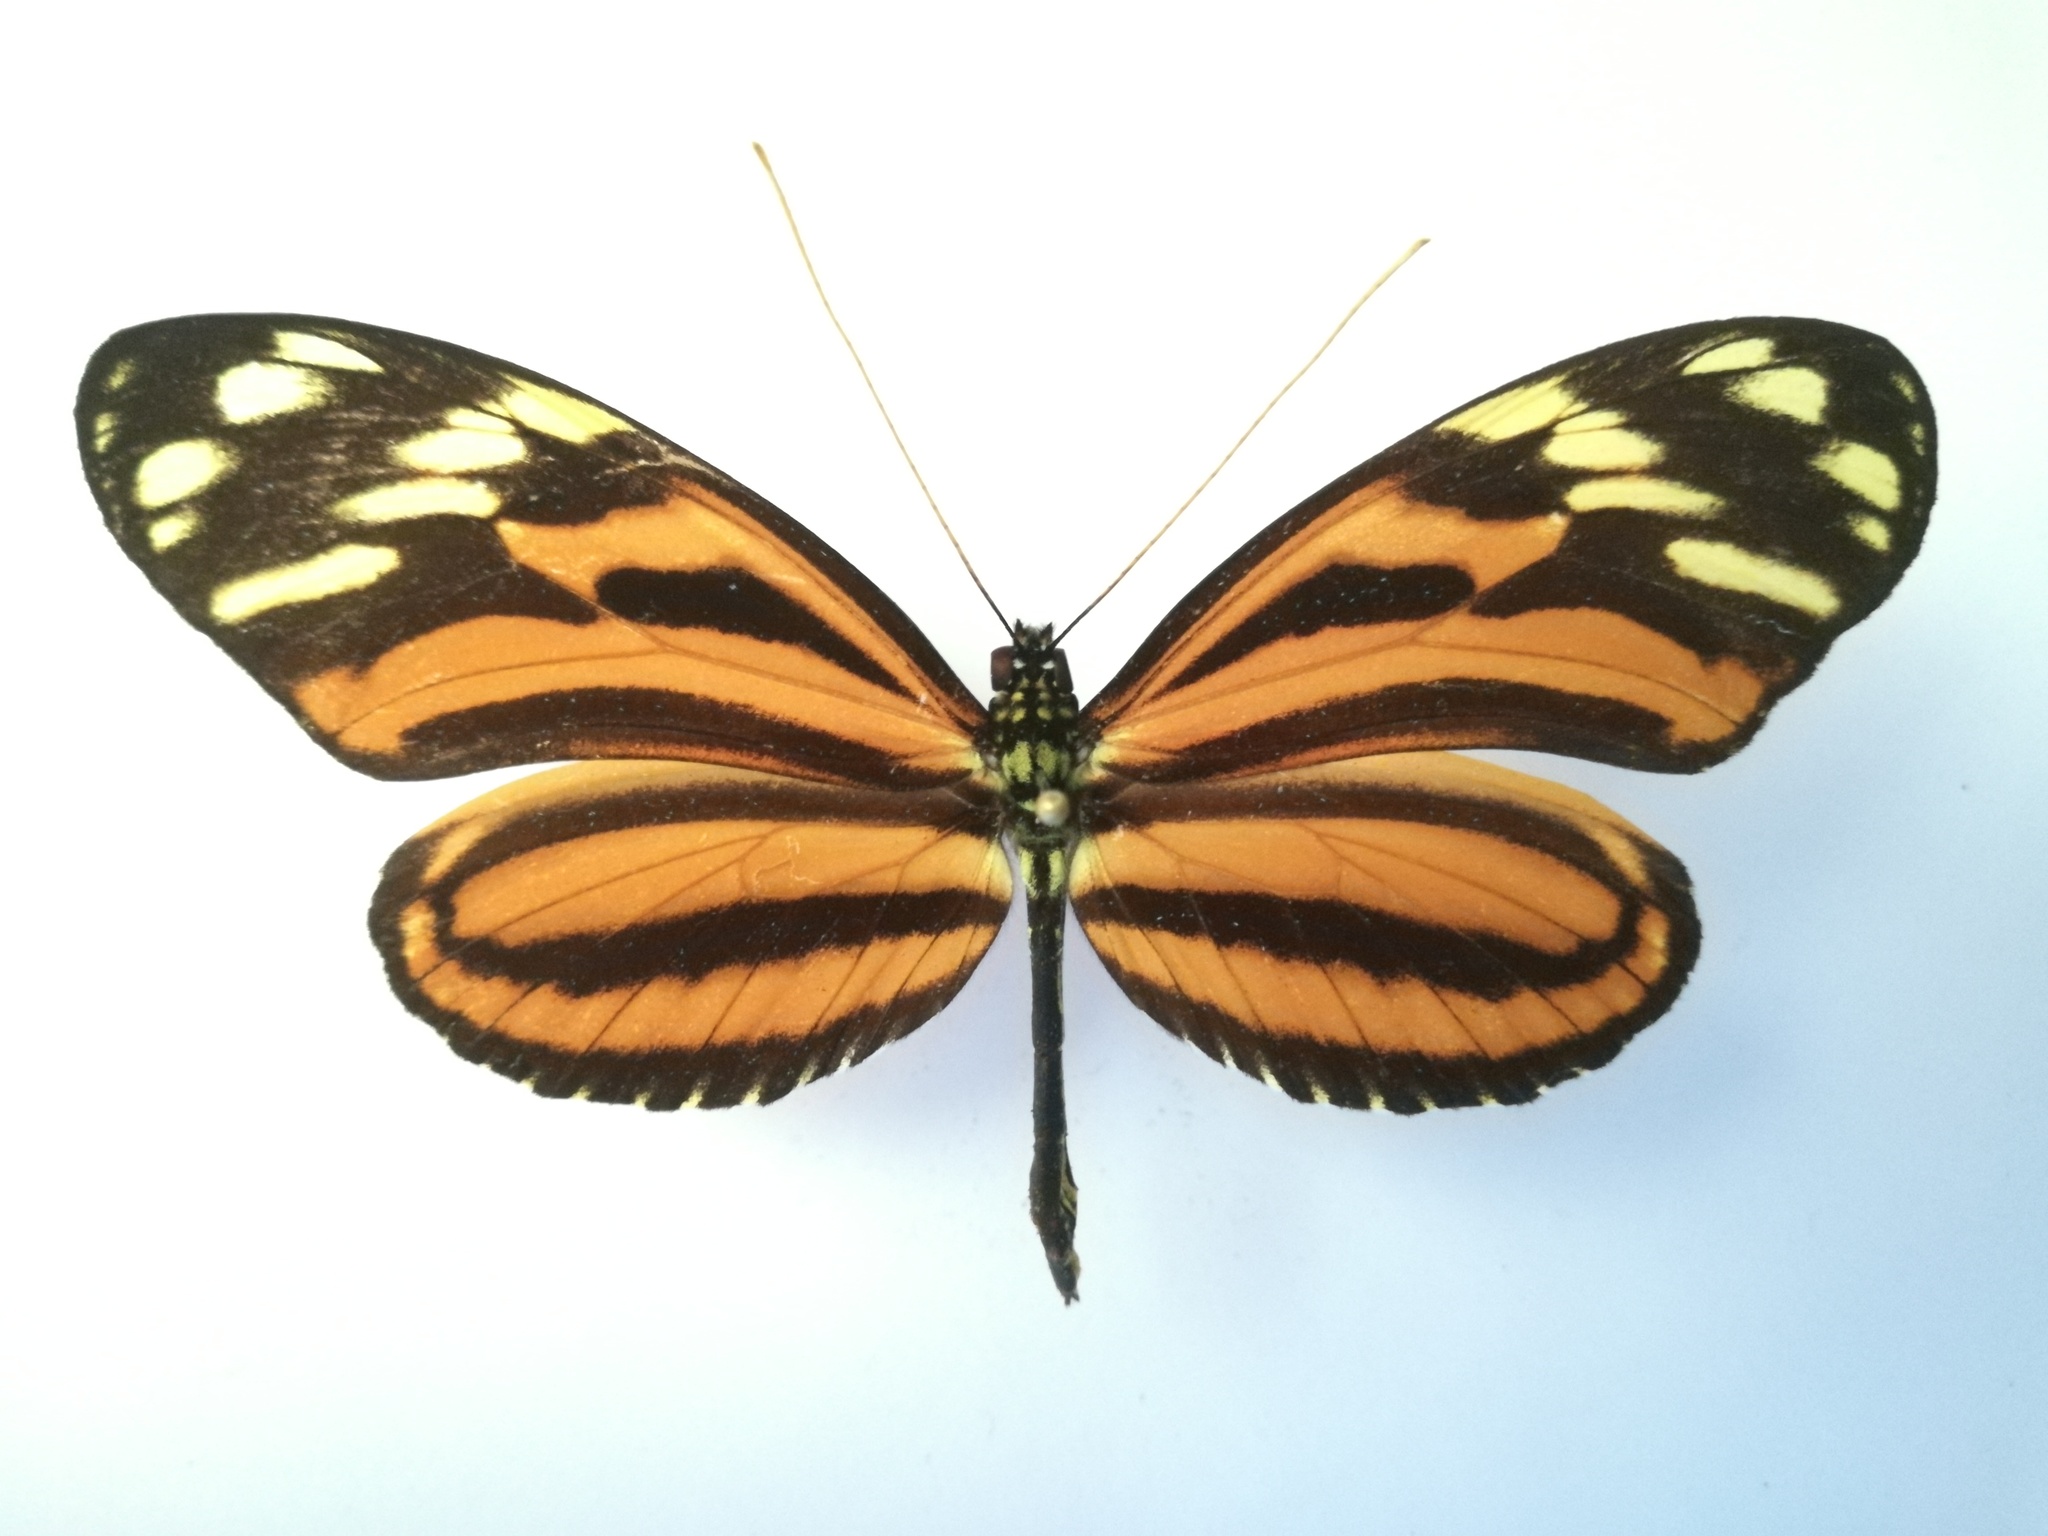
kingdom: Animalia
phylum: Arthropoda
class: Insecta
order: Lepidoptera
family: Nymphalidae
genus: Heliconius
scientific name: Heliconius ismenius
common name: Ismenius tiger
